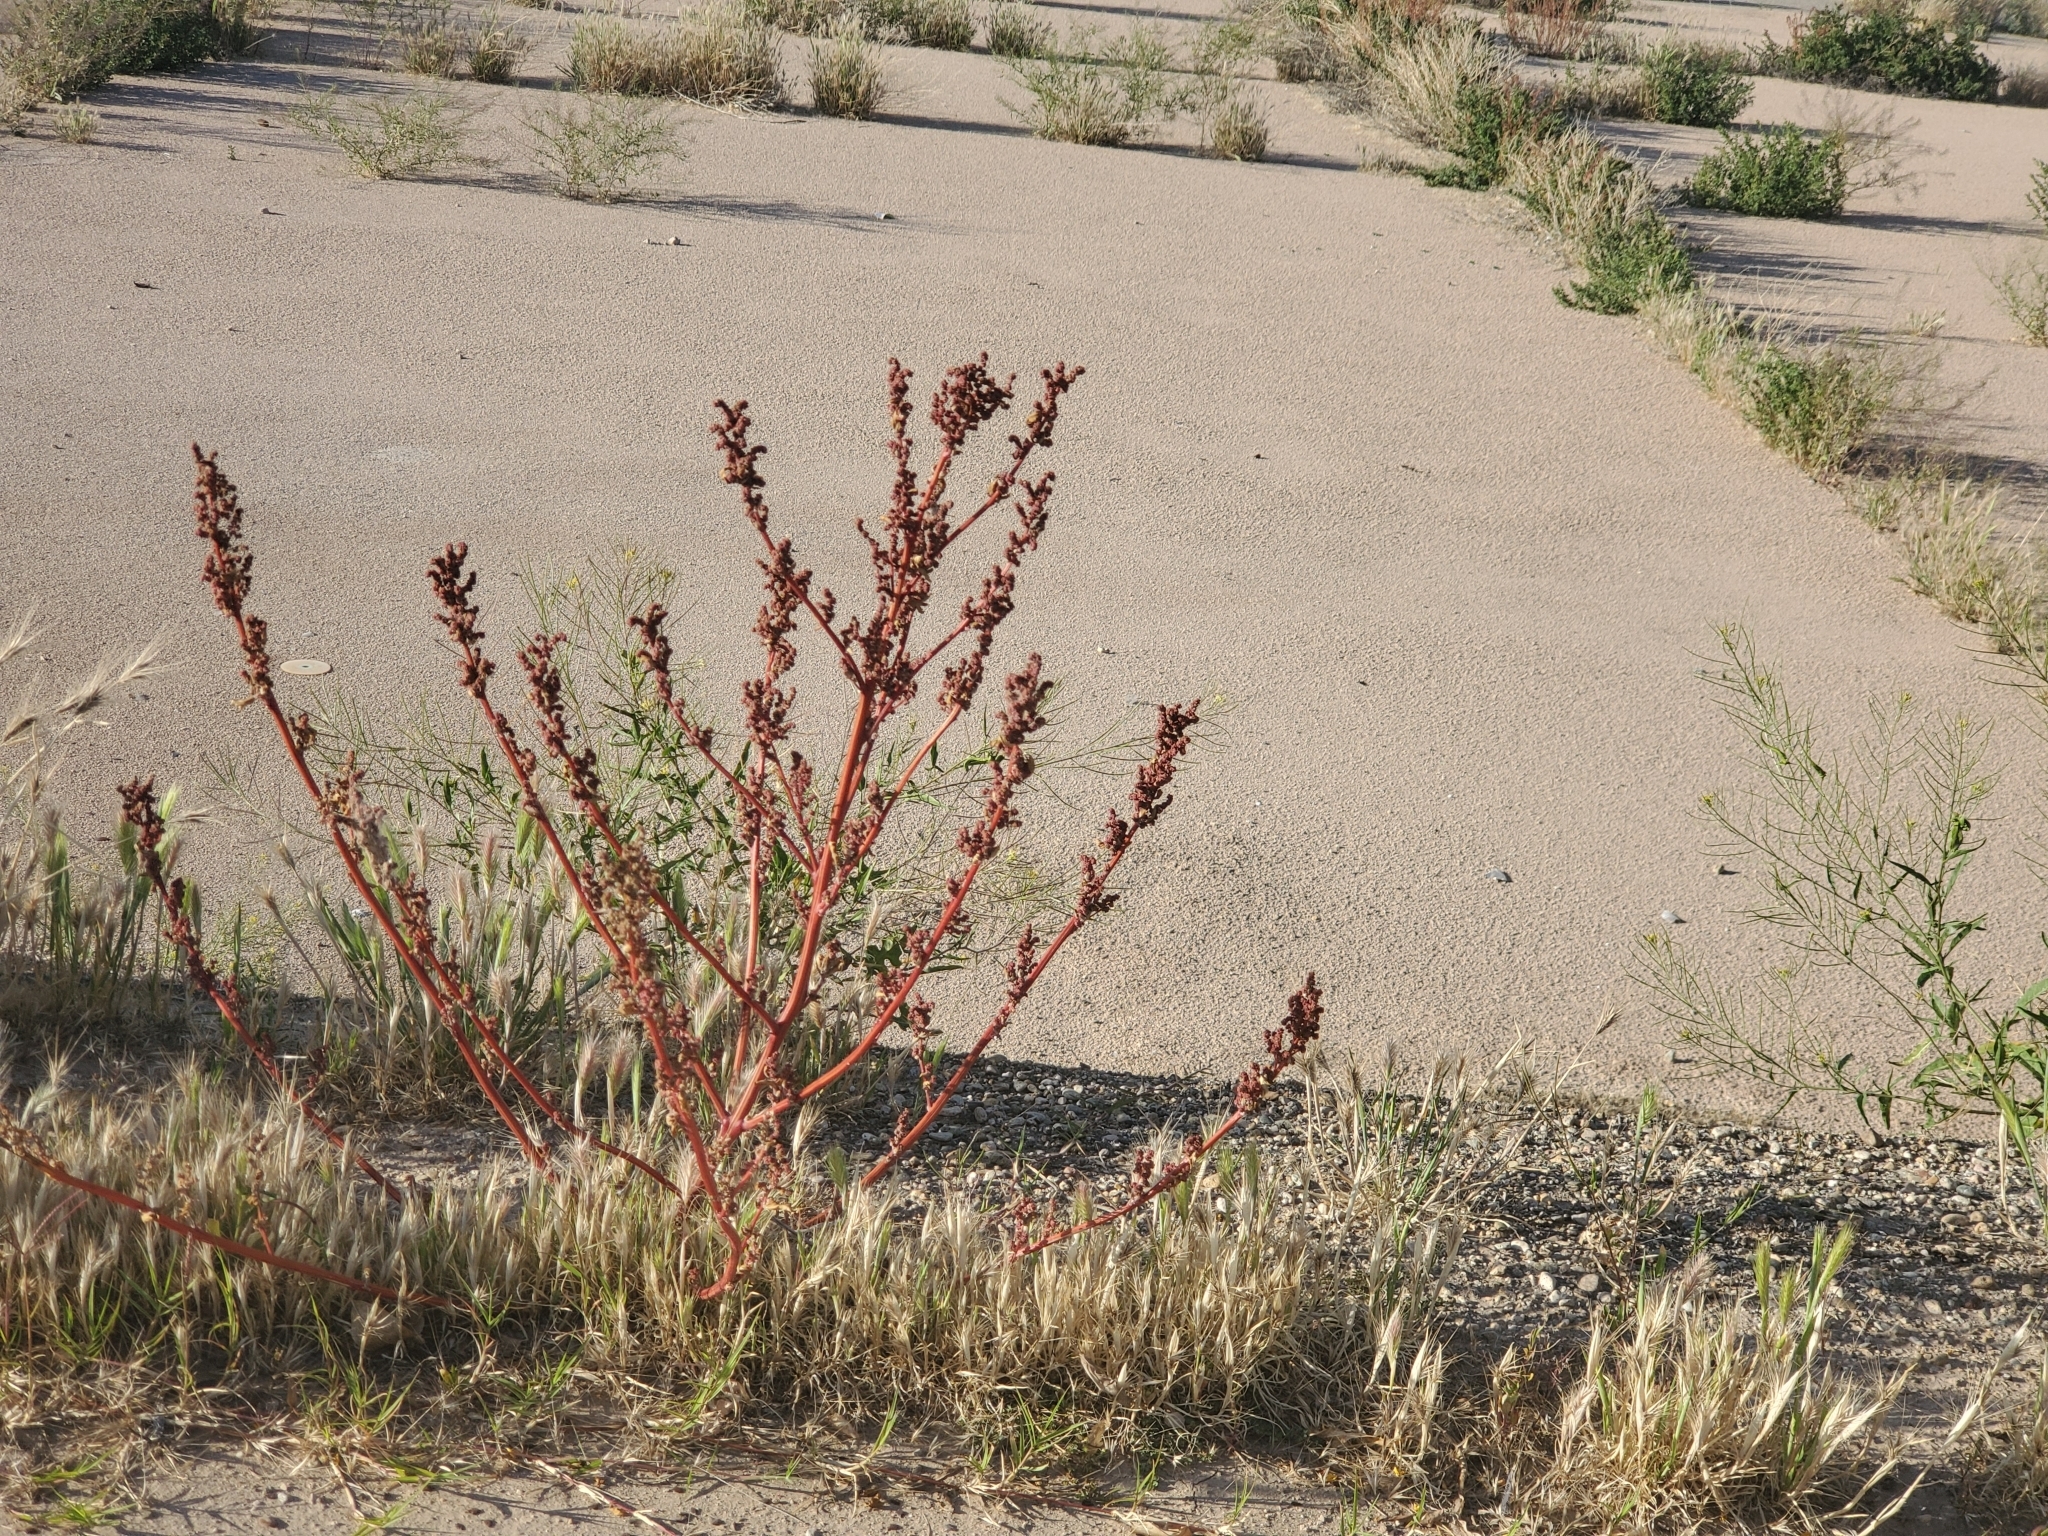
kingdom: Plantae
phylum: Tracheophyta
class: Magnoliopsida
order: Caryophyllales
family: Amaranthaceae
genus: Chenopodiastrum
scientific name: Chenopodiastrum murale
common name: Sowbane
